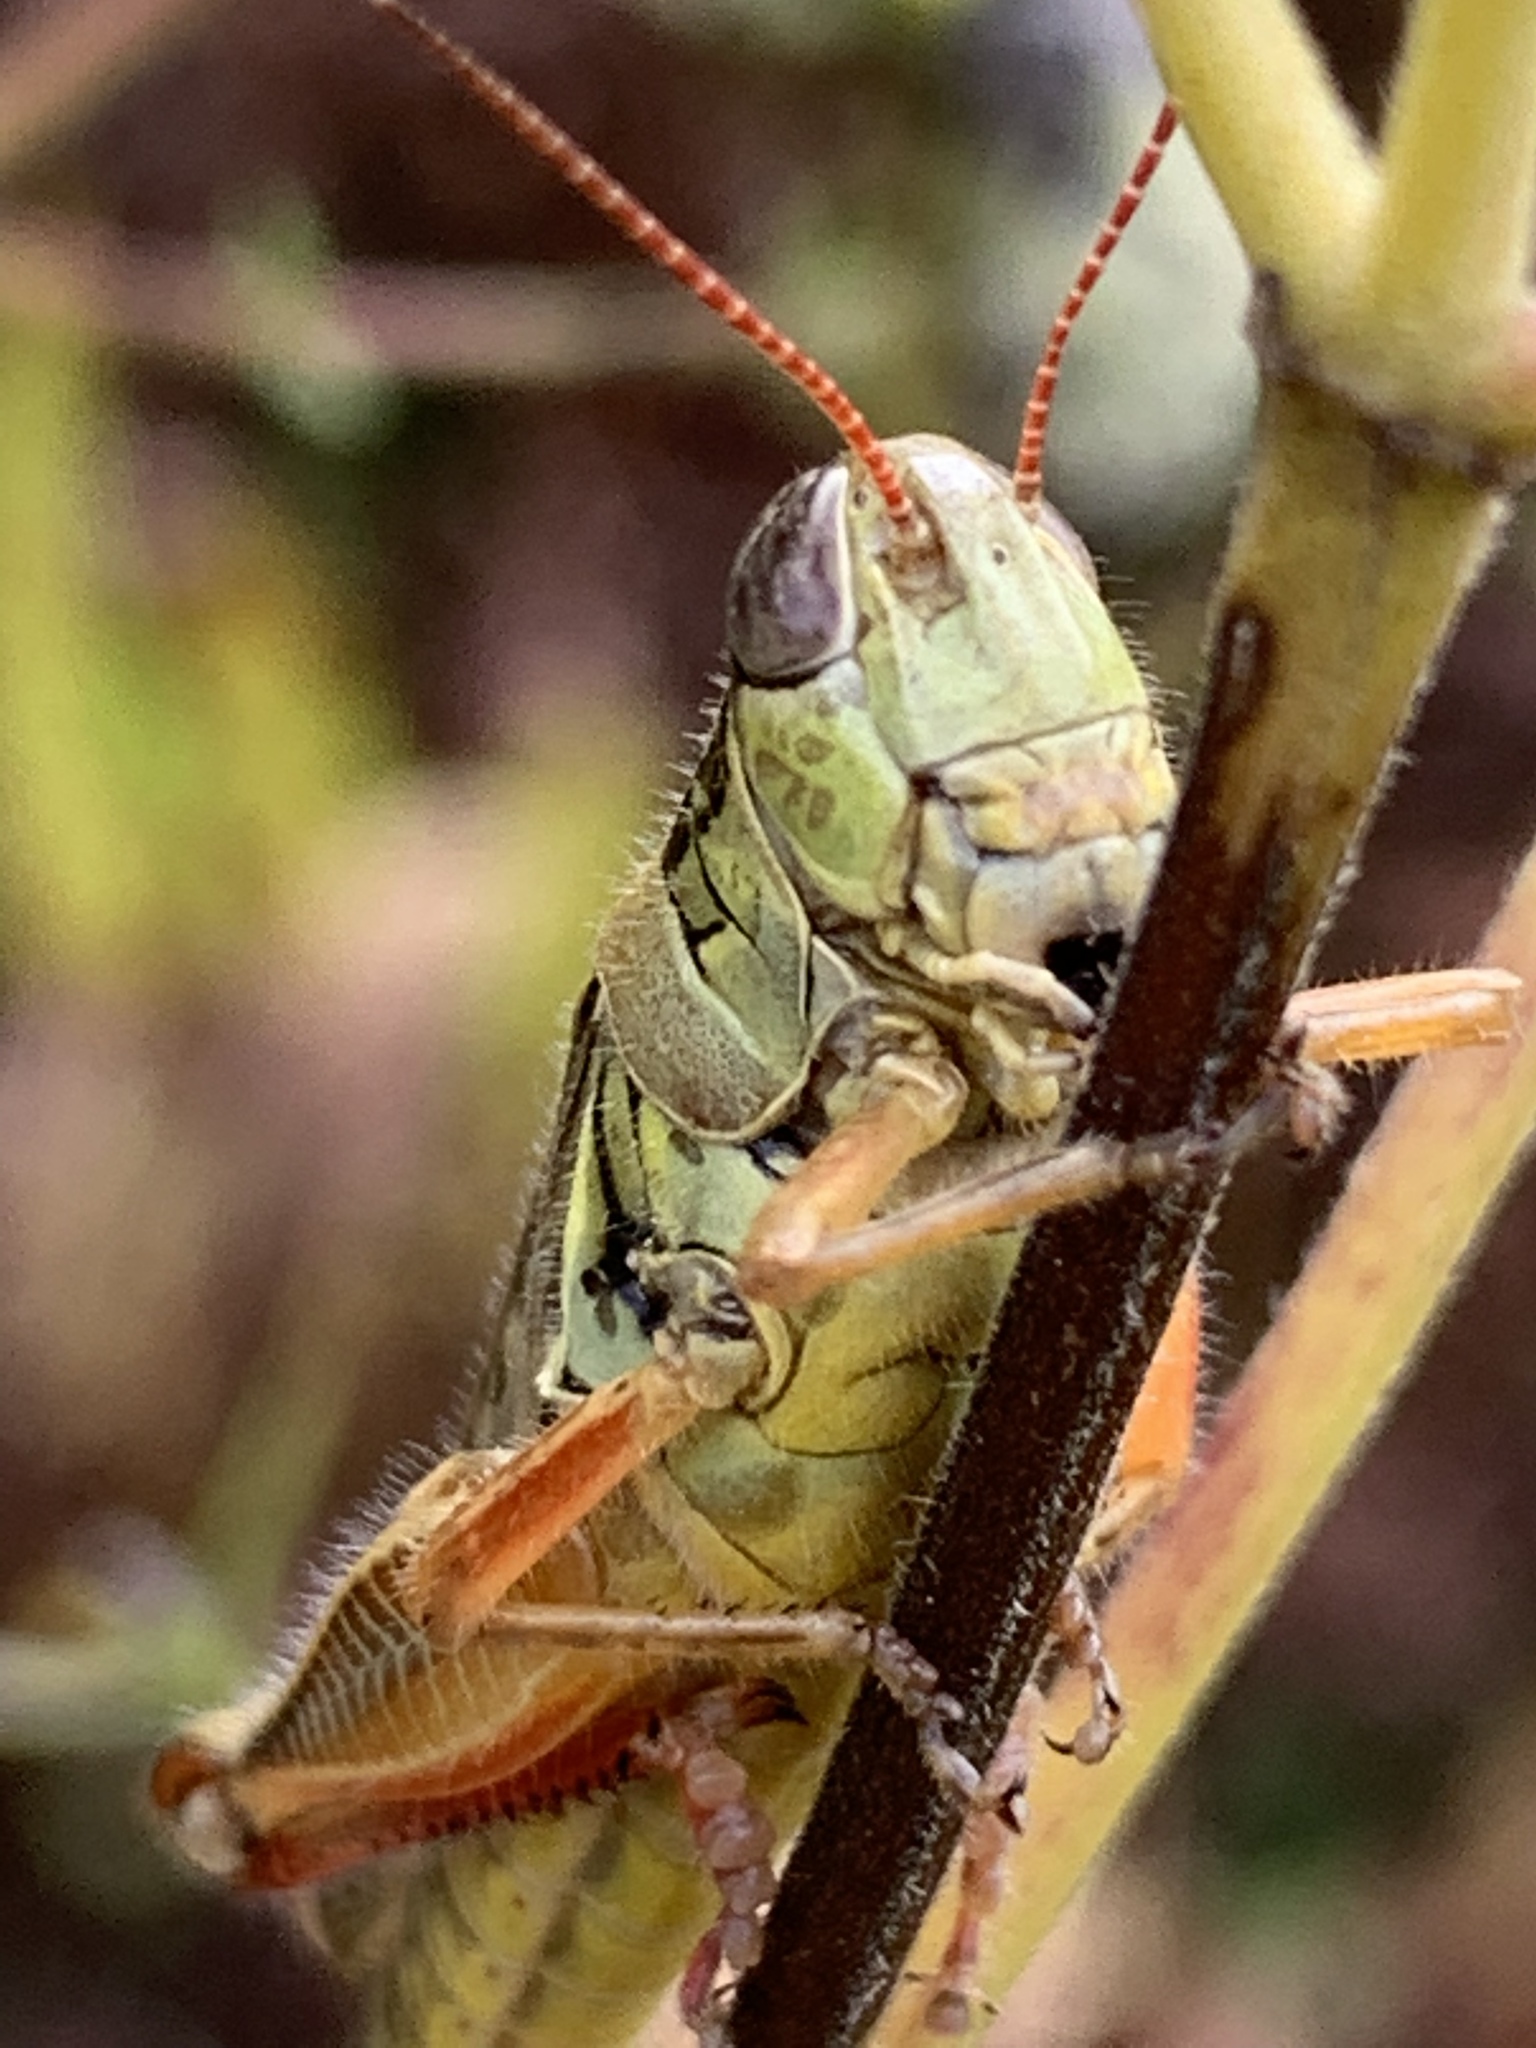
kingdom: Animalia
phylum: Arthropoda
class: Insecta
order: Orthoptera
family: Acrididae
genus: Melanoplus
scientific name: Melanoplus femurrubrum
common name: Red-legged grasshopper
